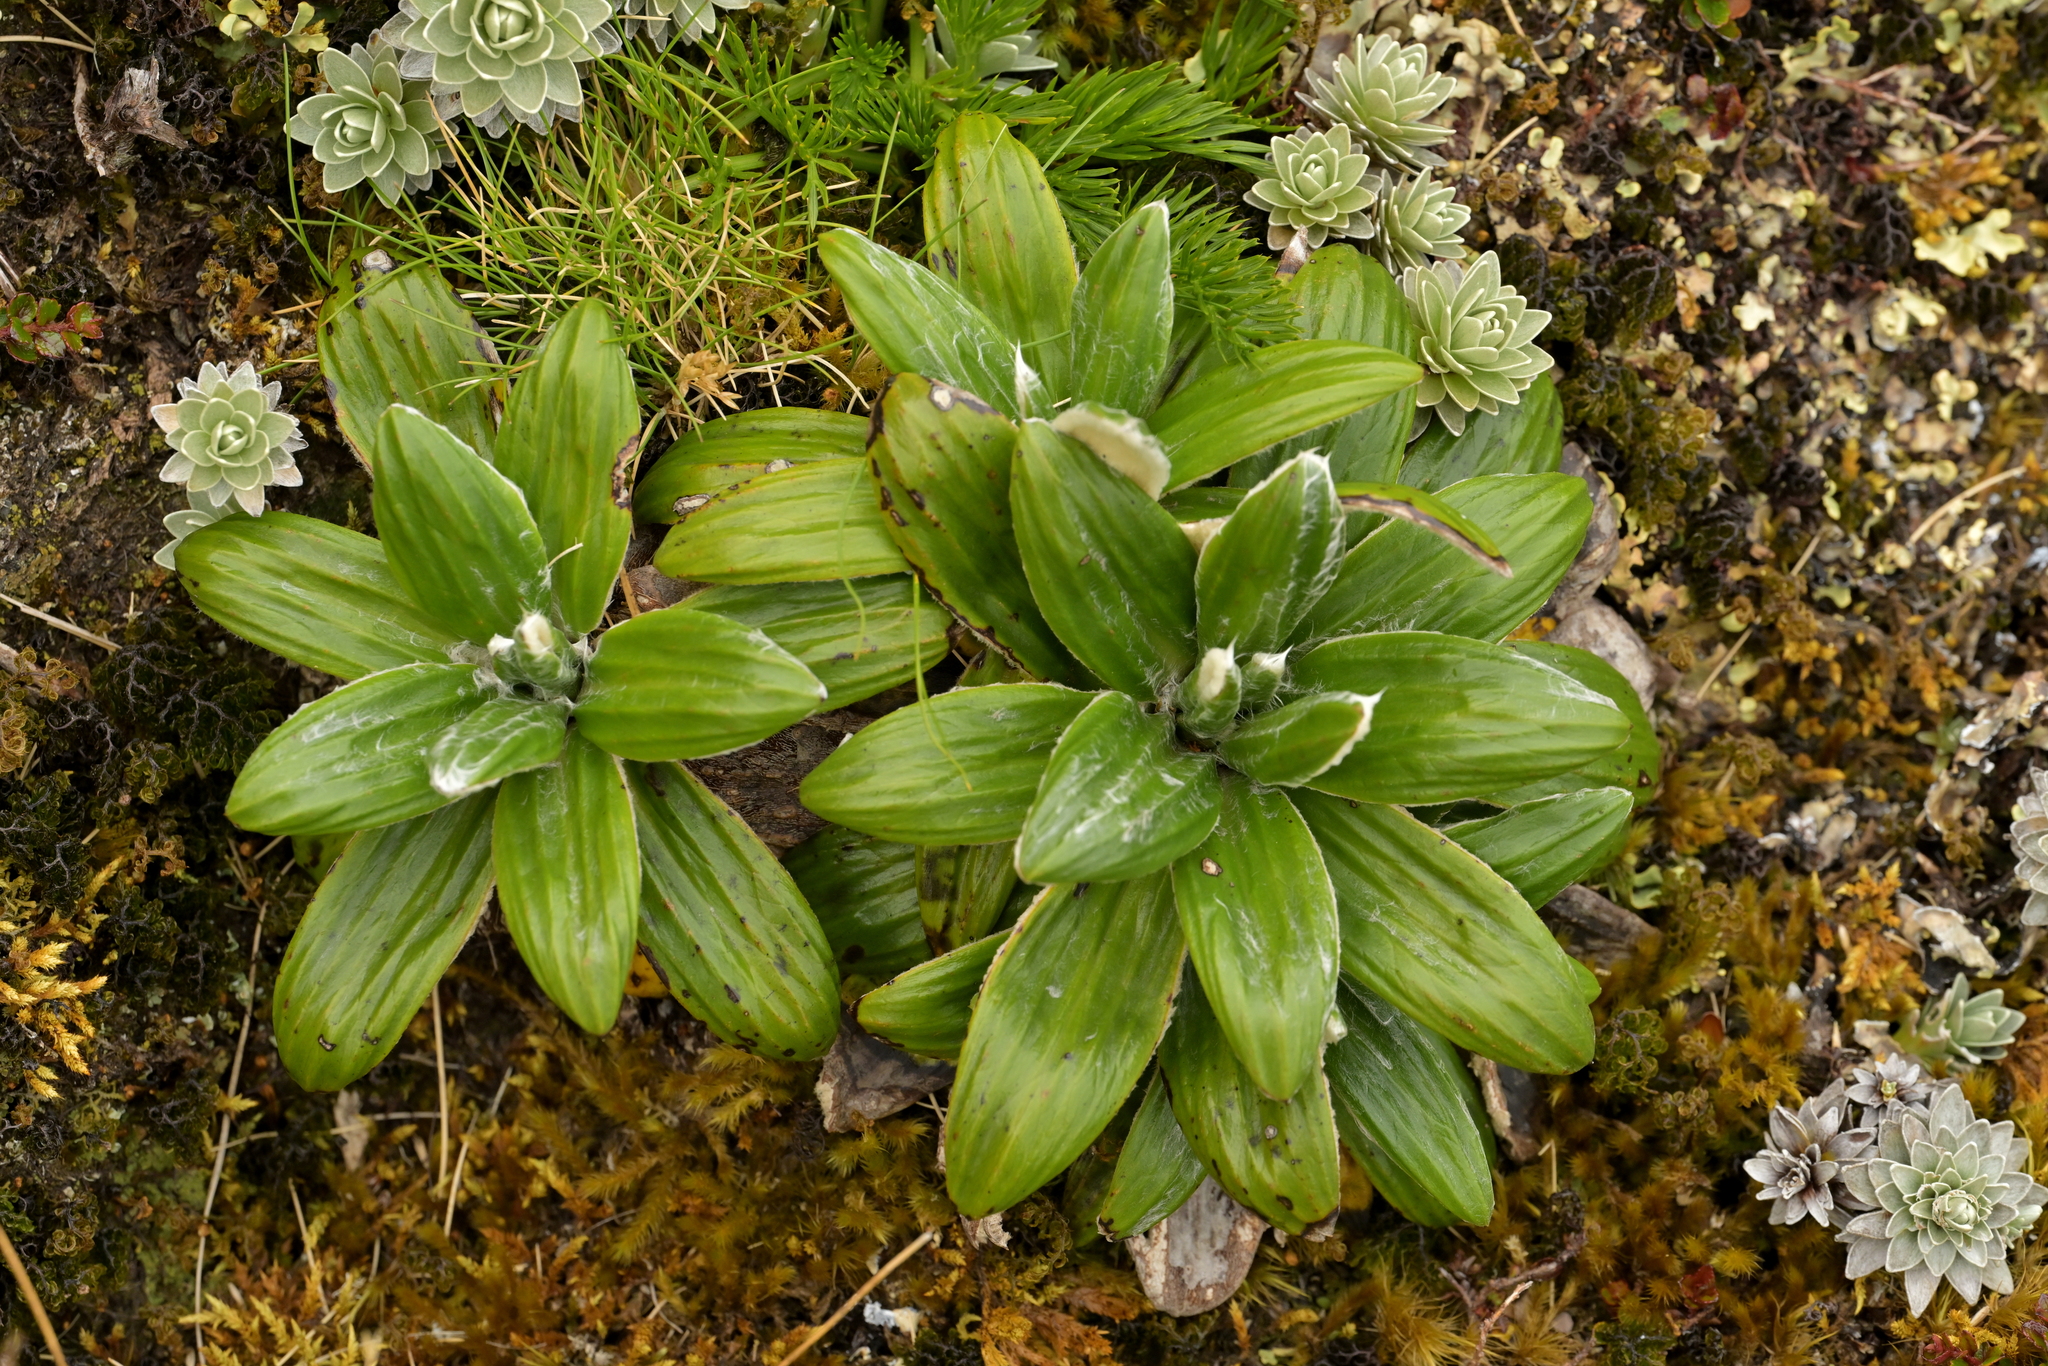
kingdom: Plantae
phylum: Tracheophyta
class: Magnoliopsida
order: Asterales
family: Asteraceae
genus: Celmisia
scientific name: Celmisia spectabilis
